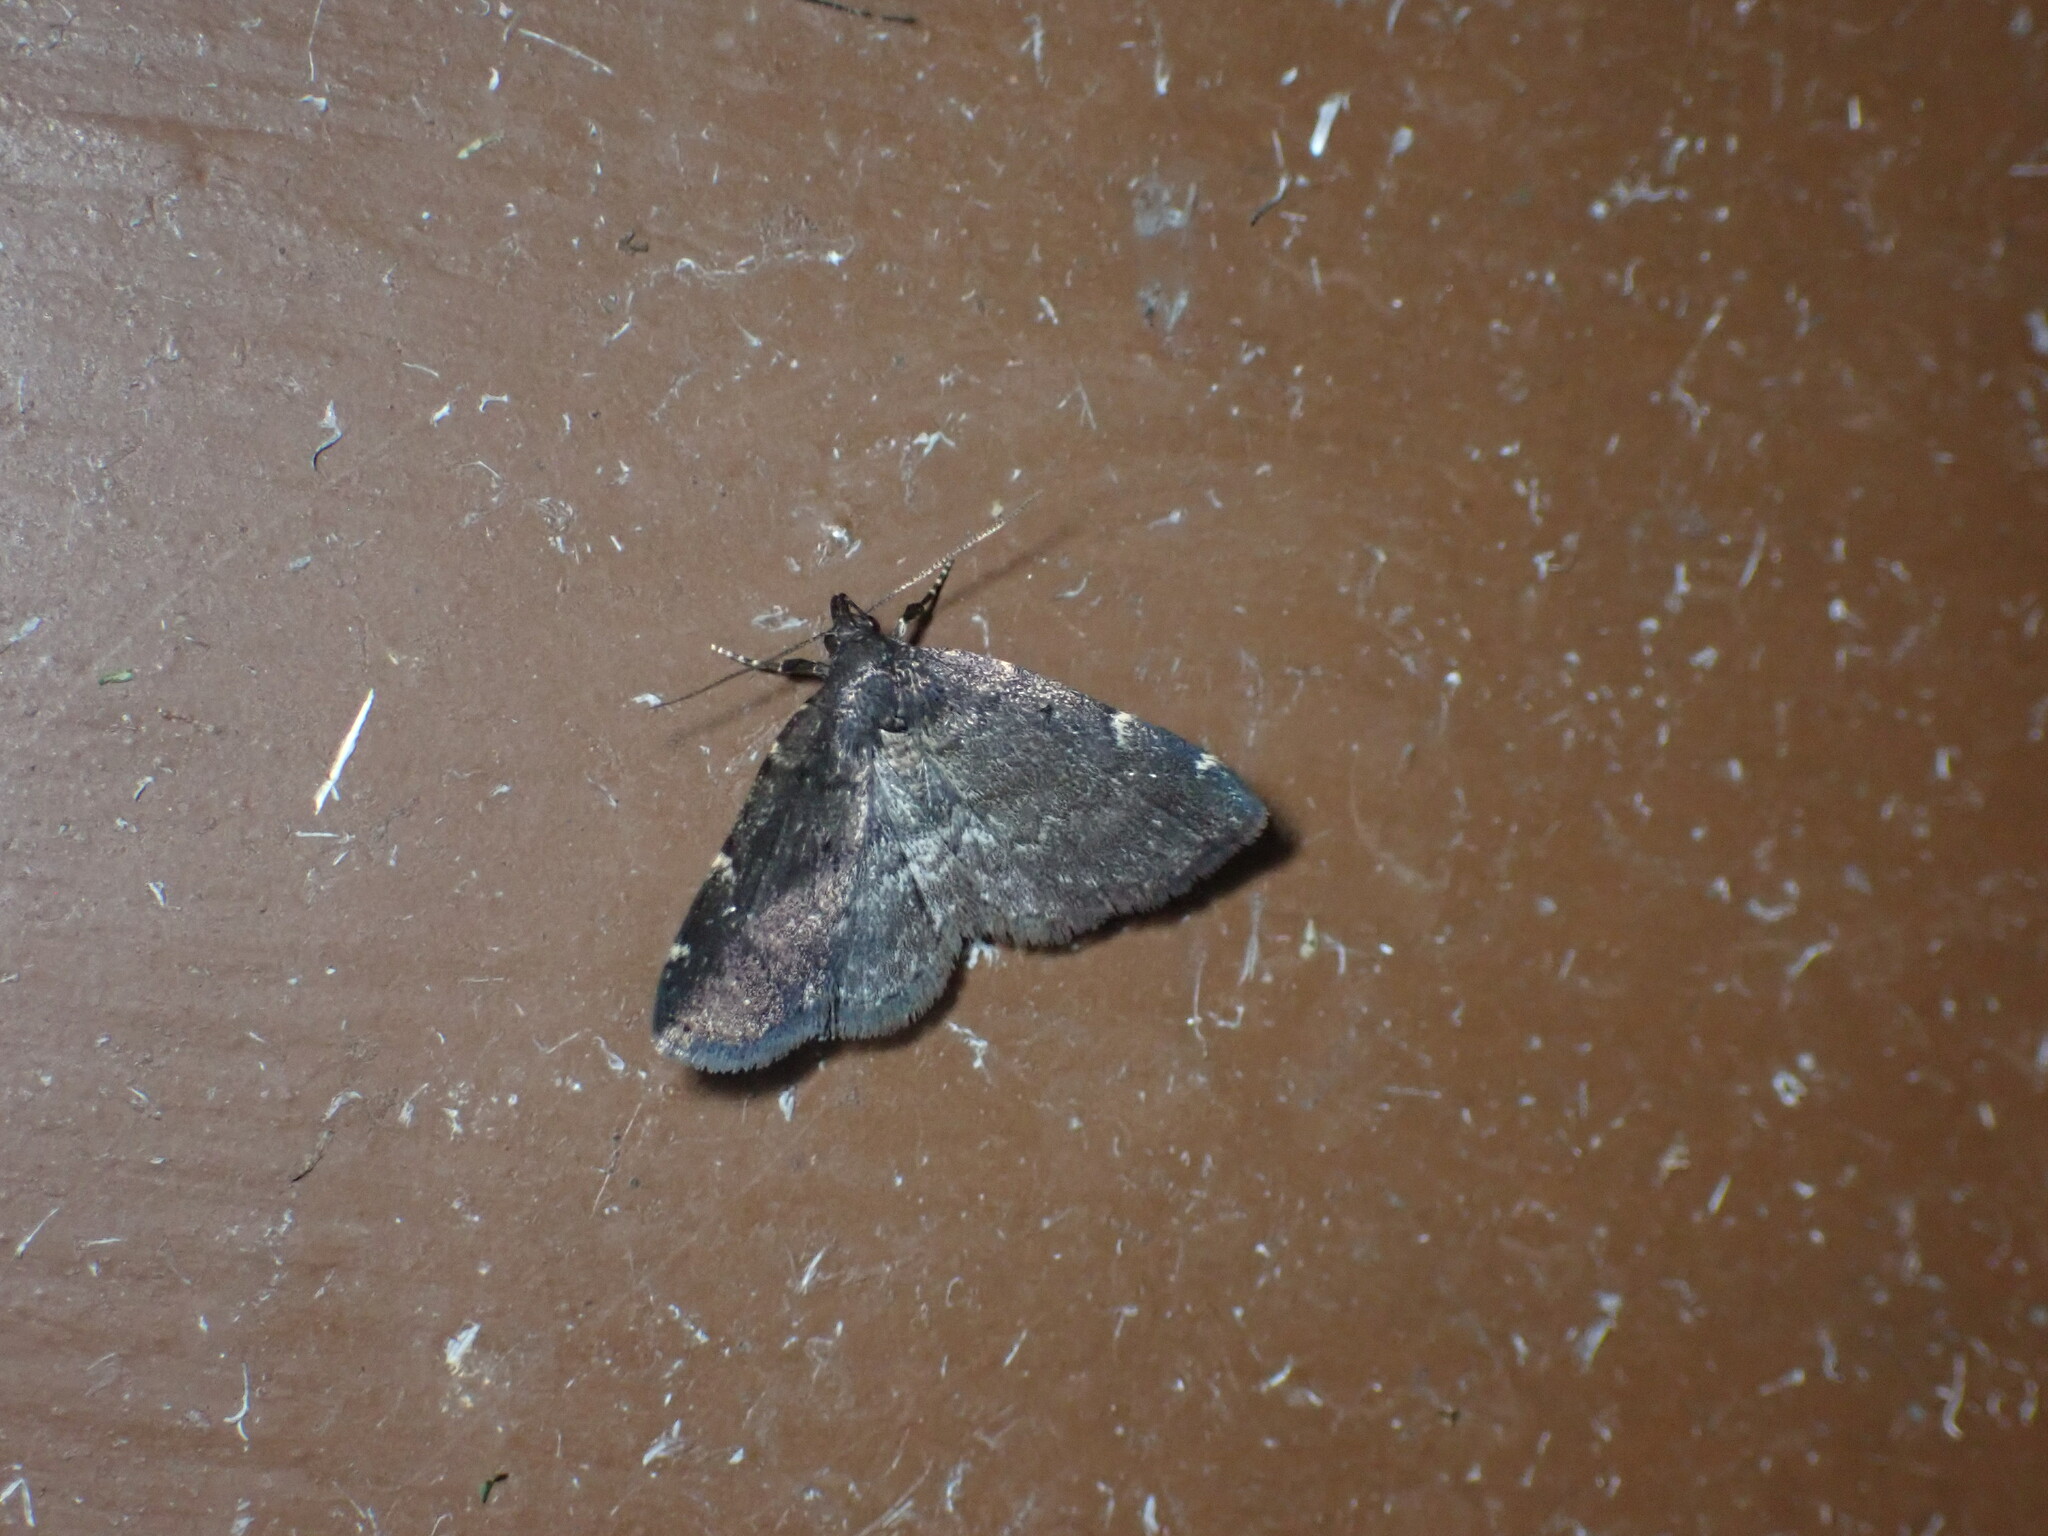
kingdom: Animalia
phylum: Arthropoda
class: Insecta
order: Lepidoptera
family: Erebidae
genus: Idia
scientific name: Idia forbesii
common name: Forbes' idia moth
